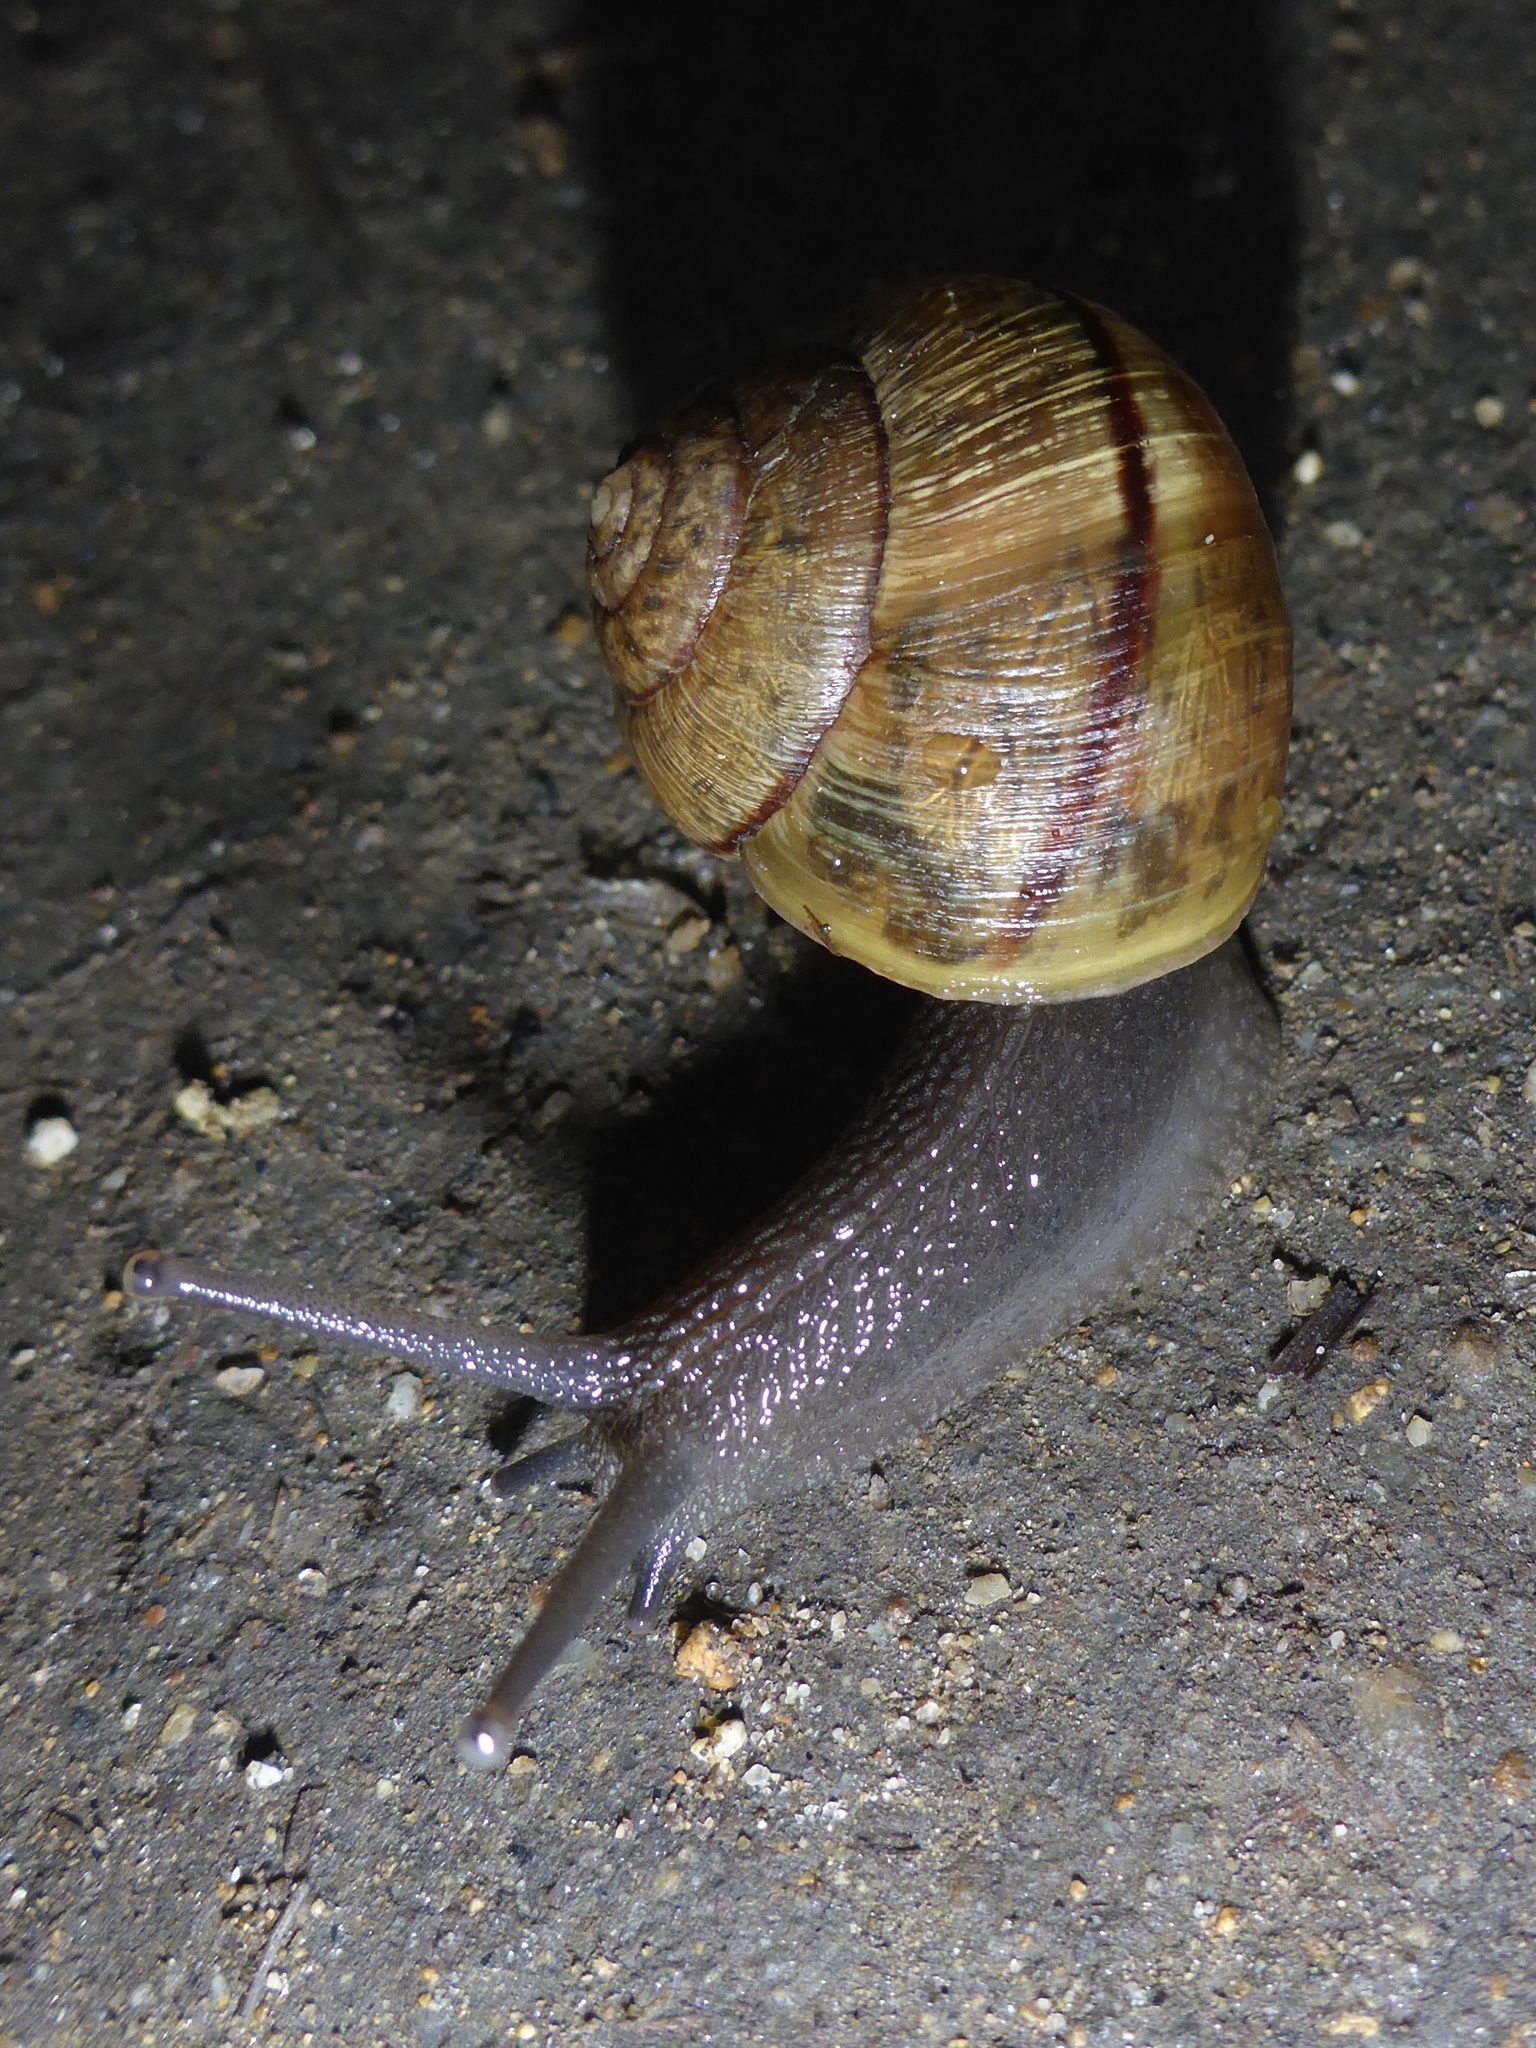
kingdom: Animalia
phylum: Mollusca
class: Gastropoda
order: Stylommatophora
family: Xanthonychidae
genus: Helminthoglypta
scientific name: Helminthoglypta nickliniana
